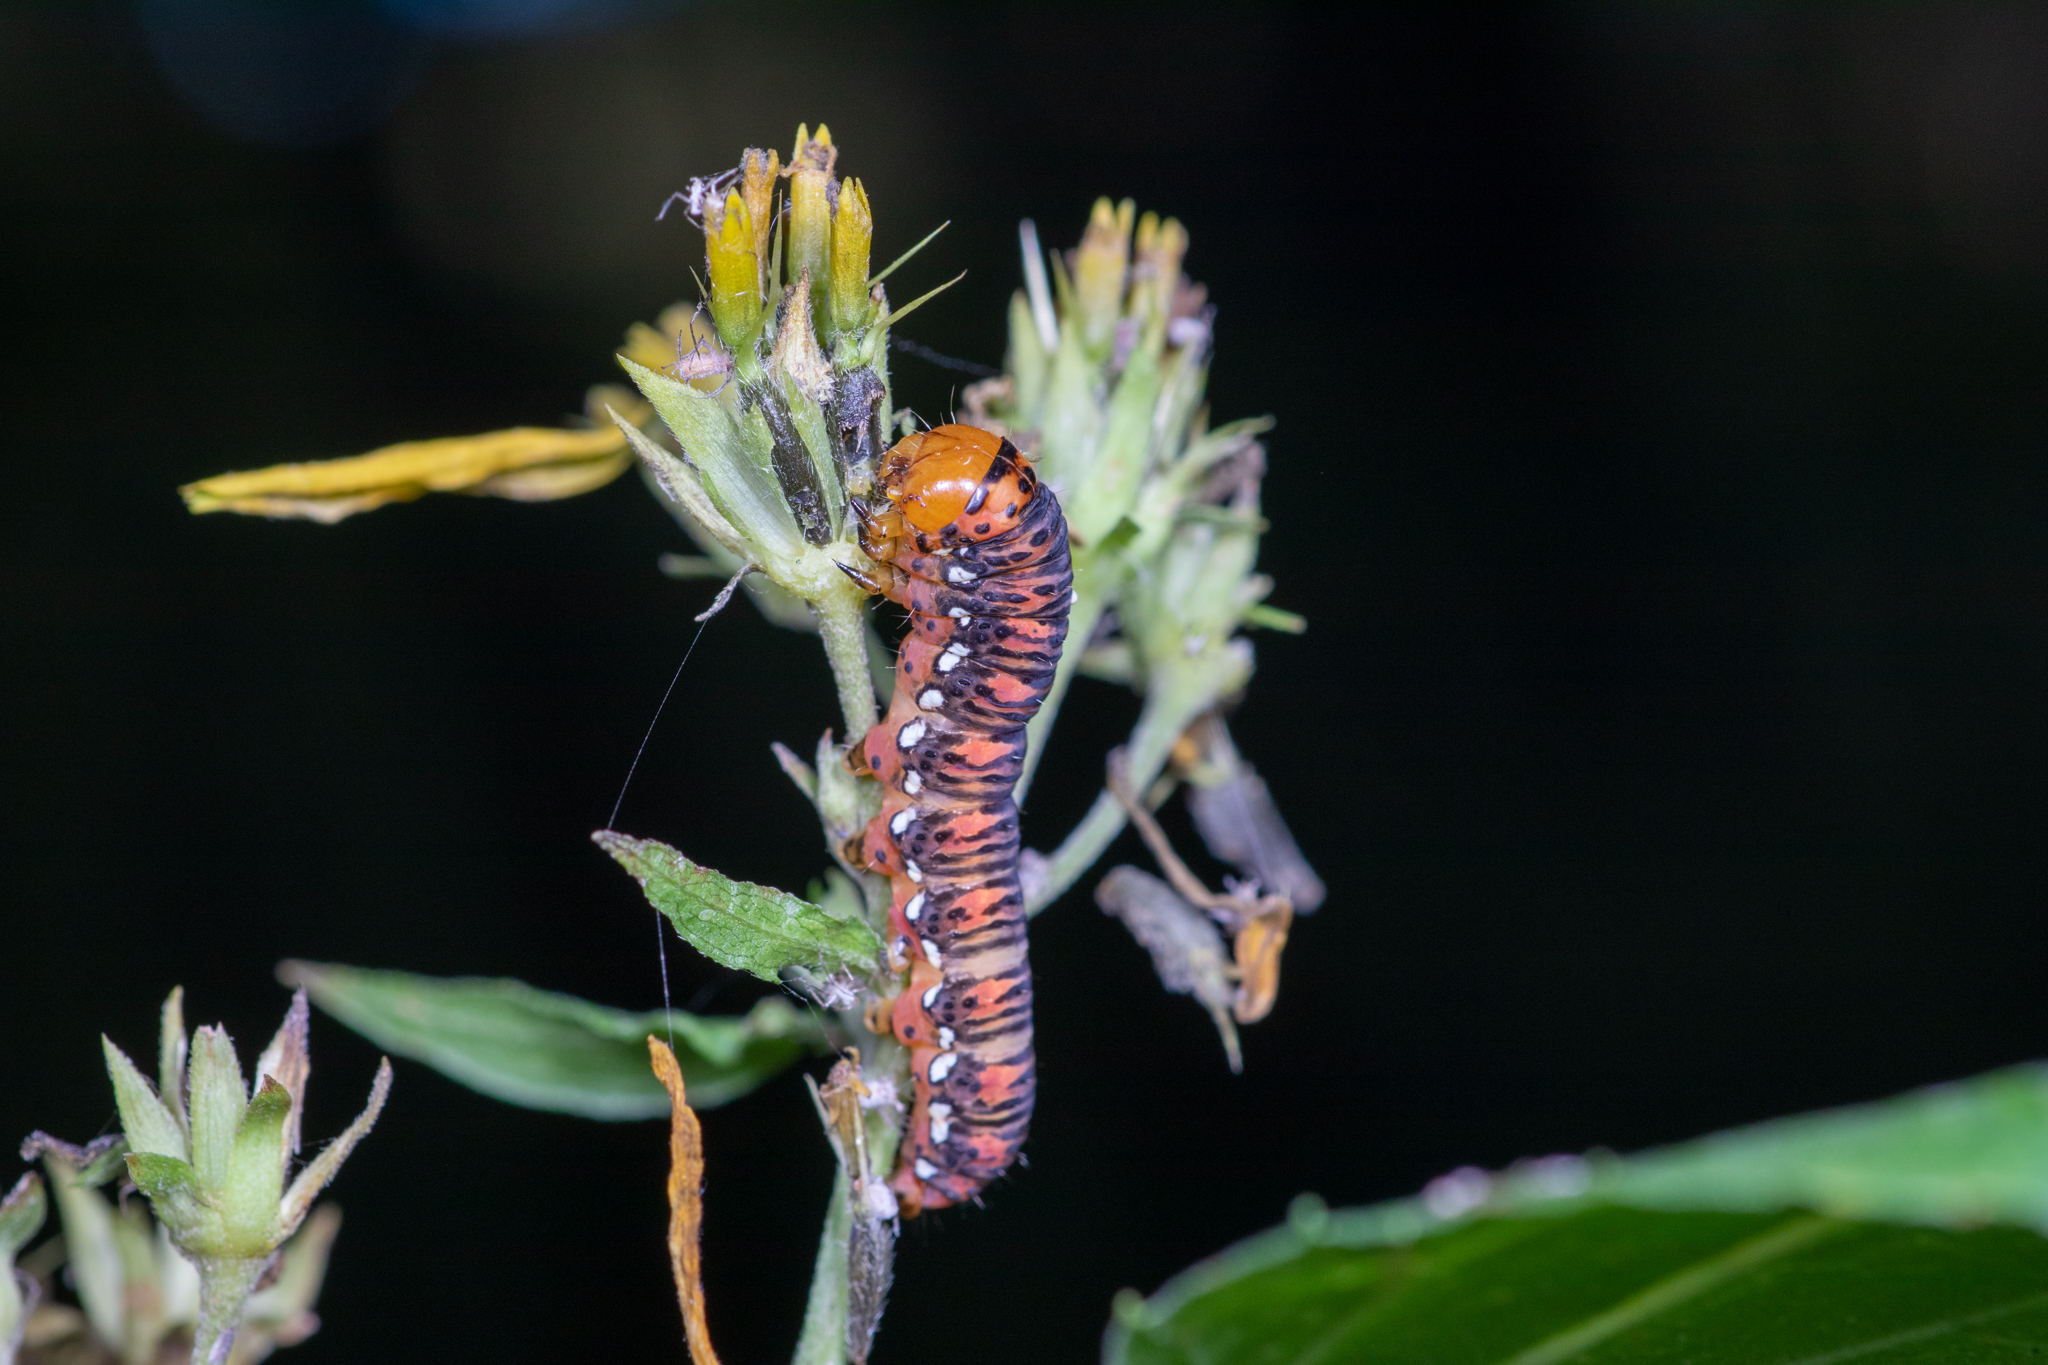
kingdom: Animalia
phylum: Arthropoda
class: Insecta
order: Lepidoptera
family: Noctuidae
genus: Basilodes
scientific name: Basilodes pepita
